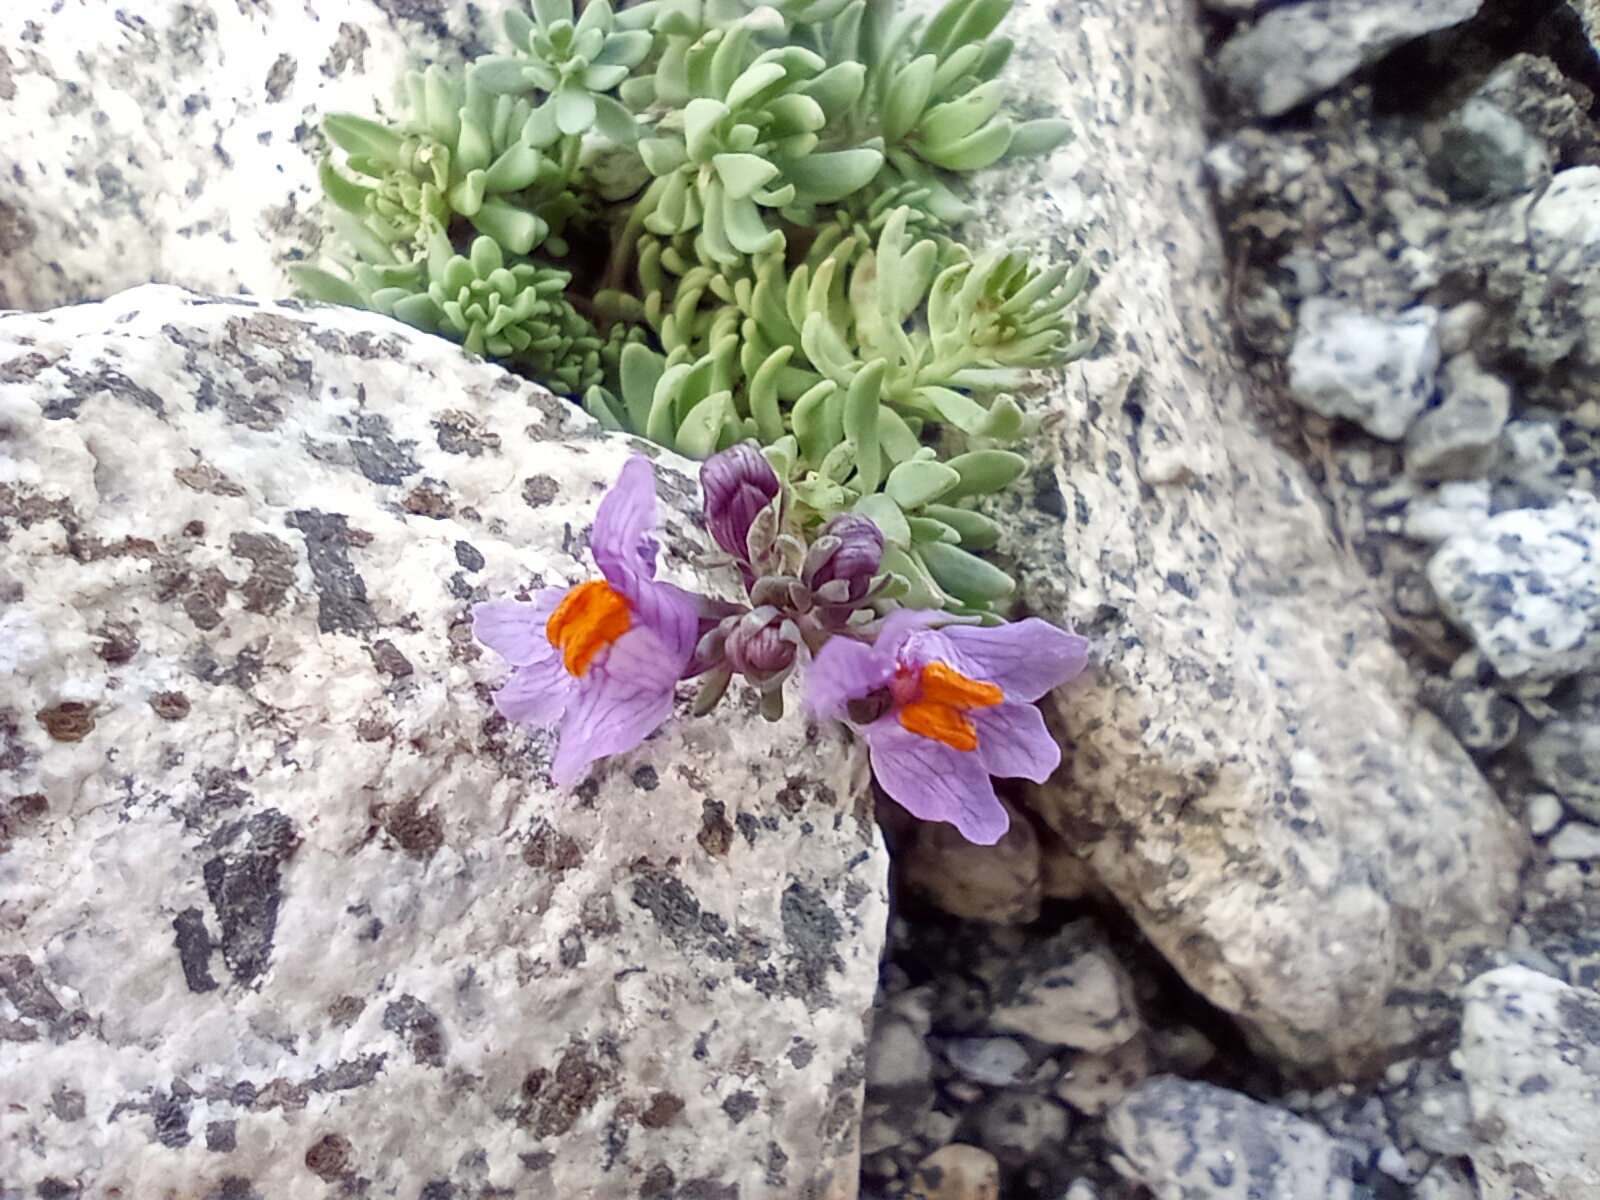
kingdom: Plantae
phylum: Tracheophyta
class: Magnoliopsida
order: Lamiales
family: Plantaginaceae
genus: Linaria
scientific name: Linaria alpina
